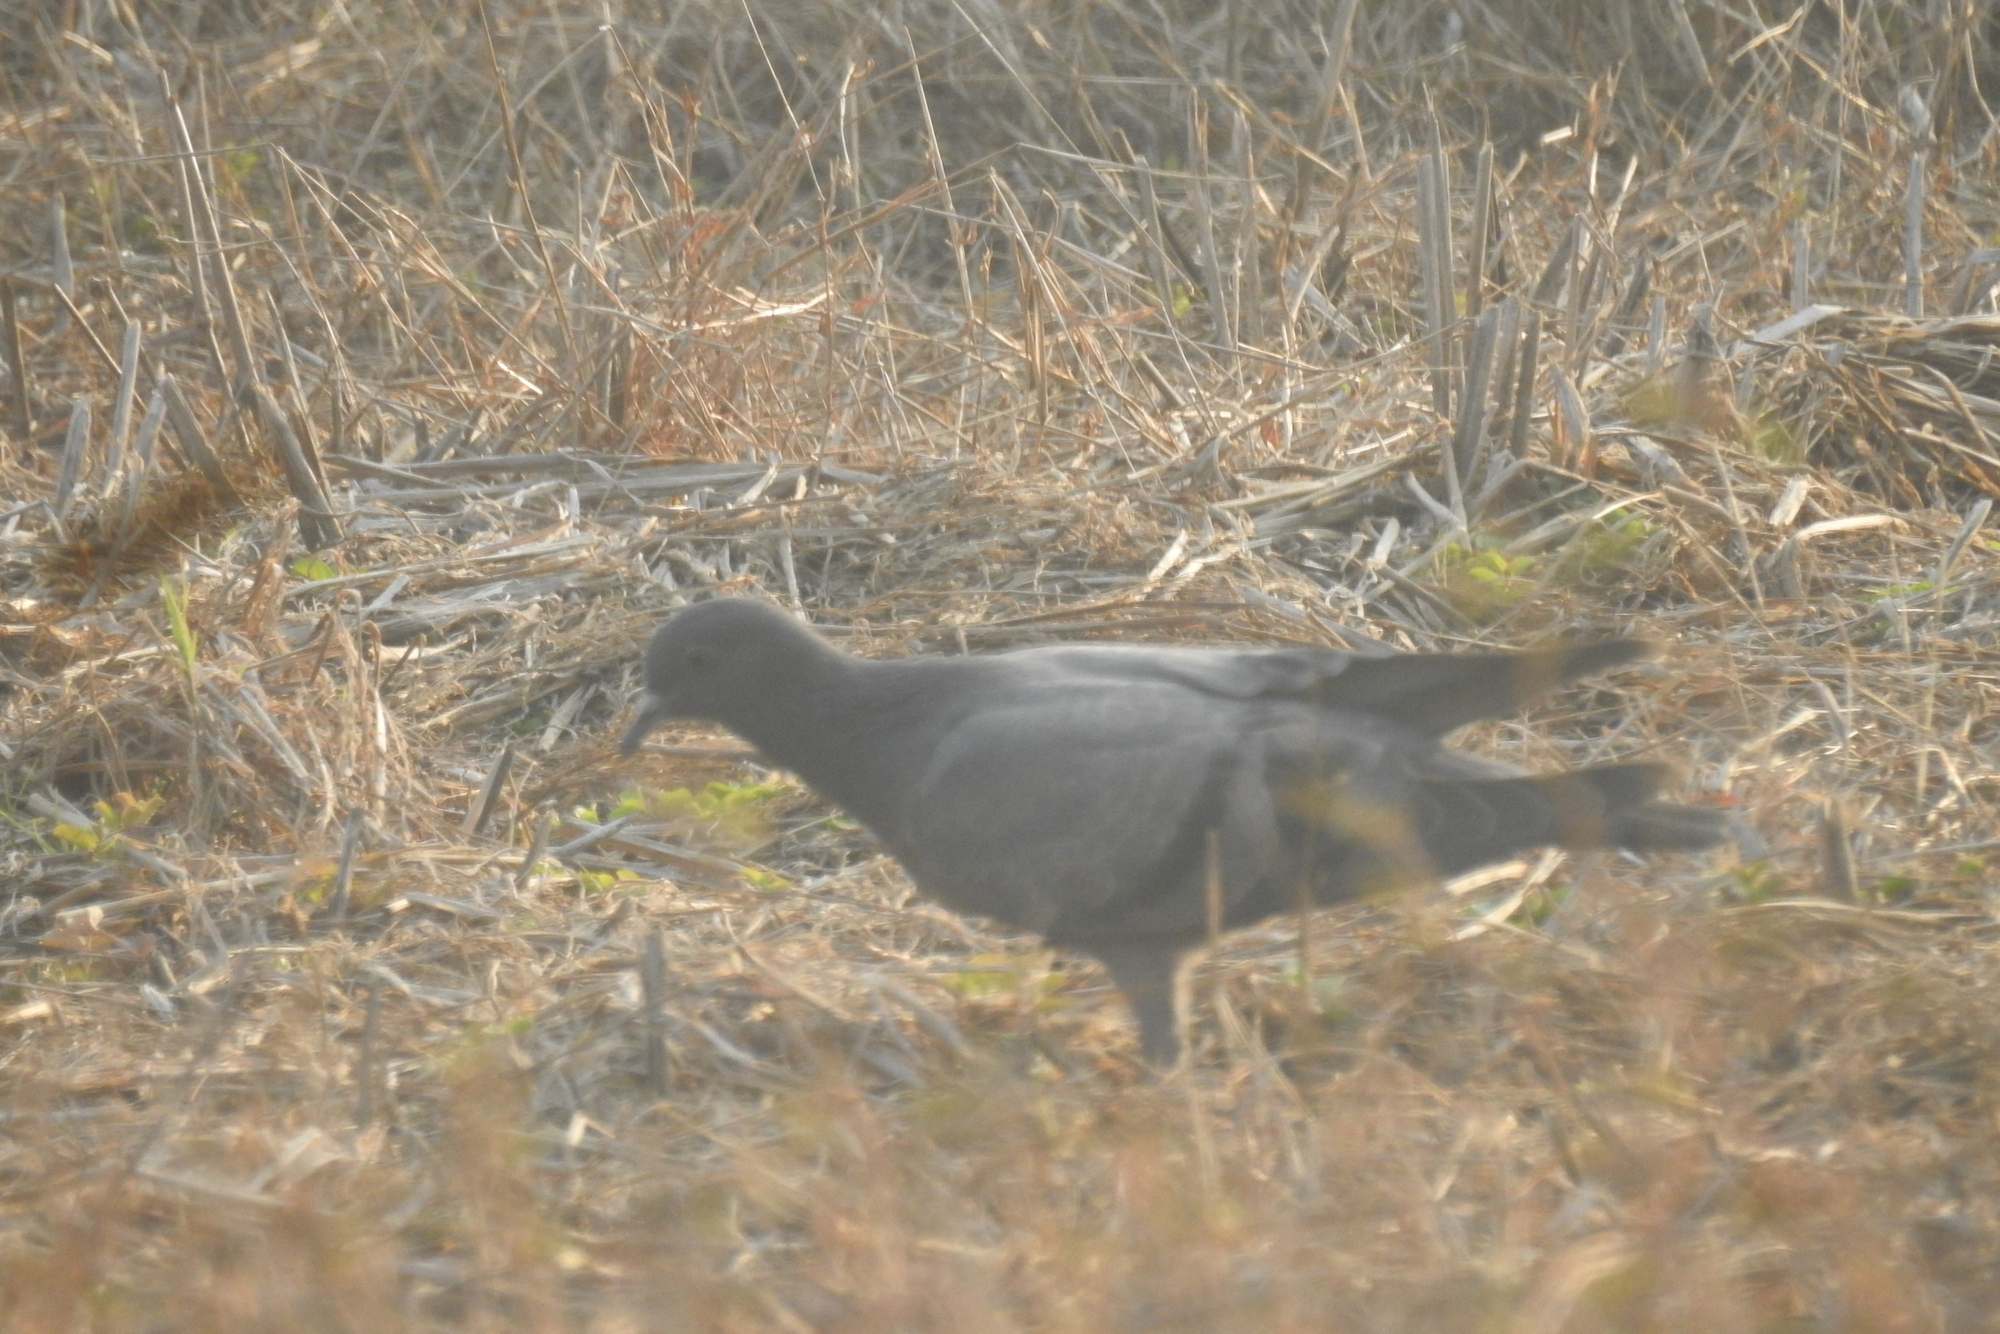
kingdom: Animalia
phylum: Chordata
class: Aves
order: Columbiformes
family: Columbidae
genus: Columba
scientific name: Columba livia
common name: Rock pigeon
